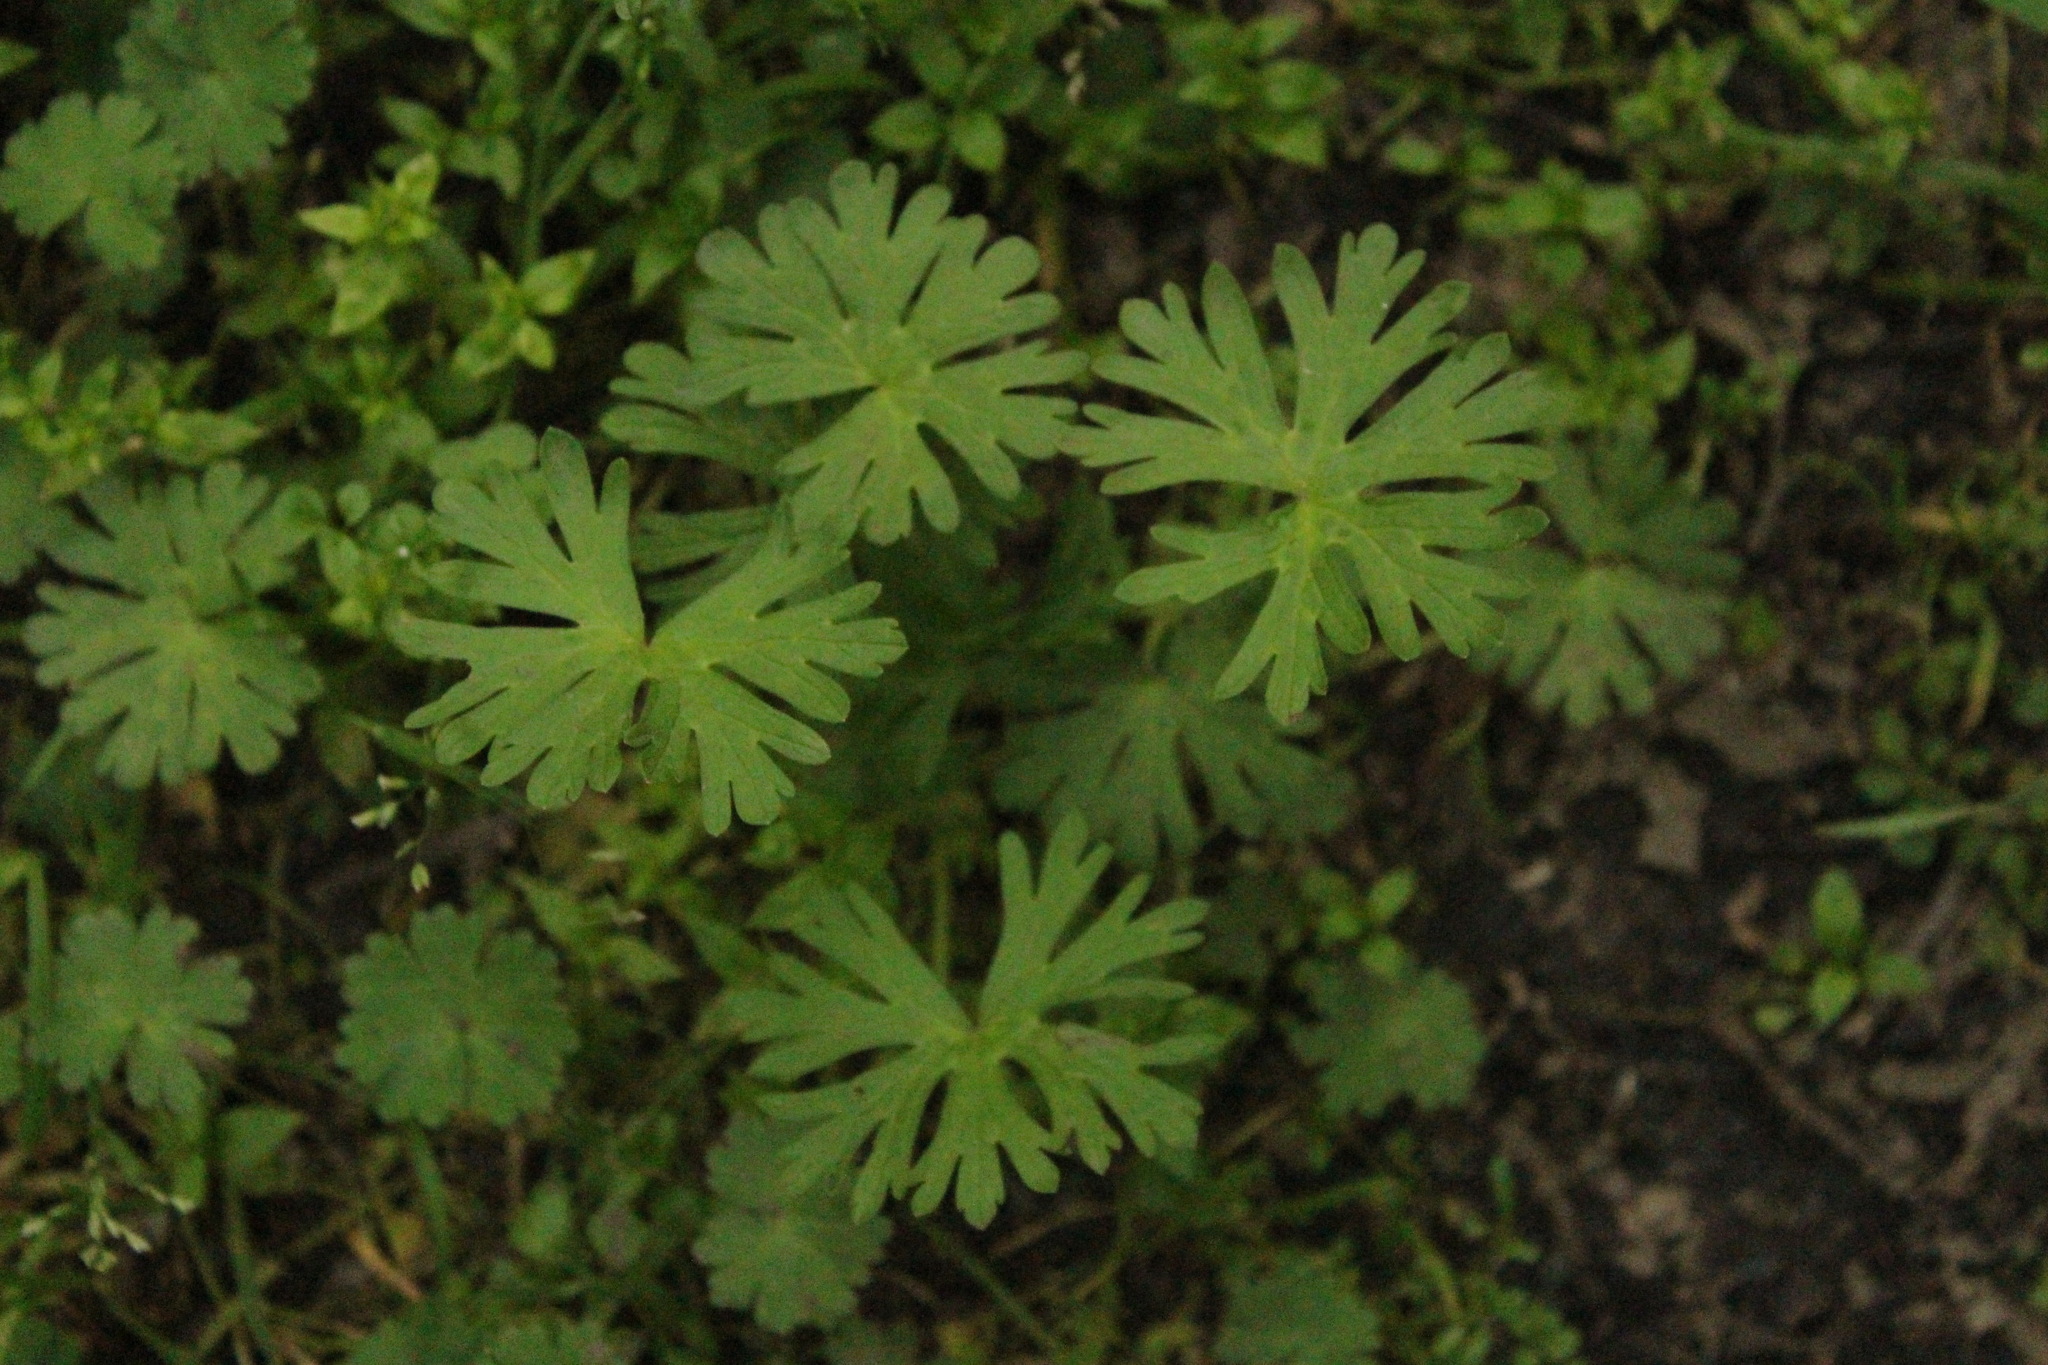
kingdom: Plantae
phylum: Tracheophyta
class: Magnoliopsida
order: Geraniales
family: Geraniaceae
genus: Geranium
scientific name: Geranium
